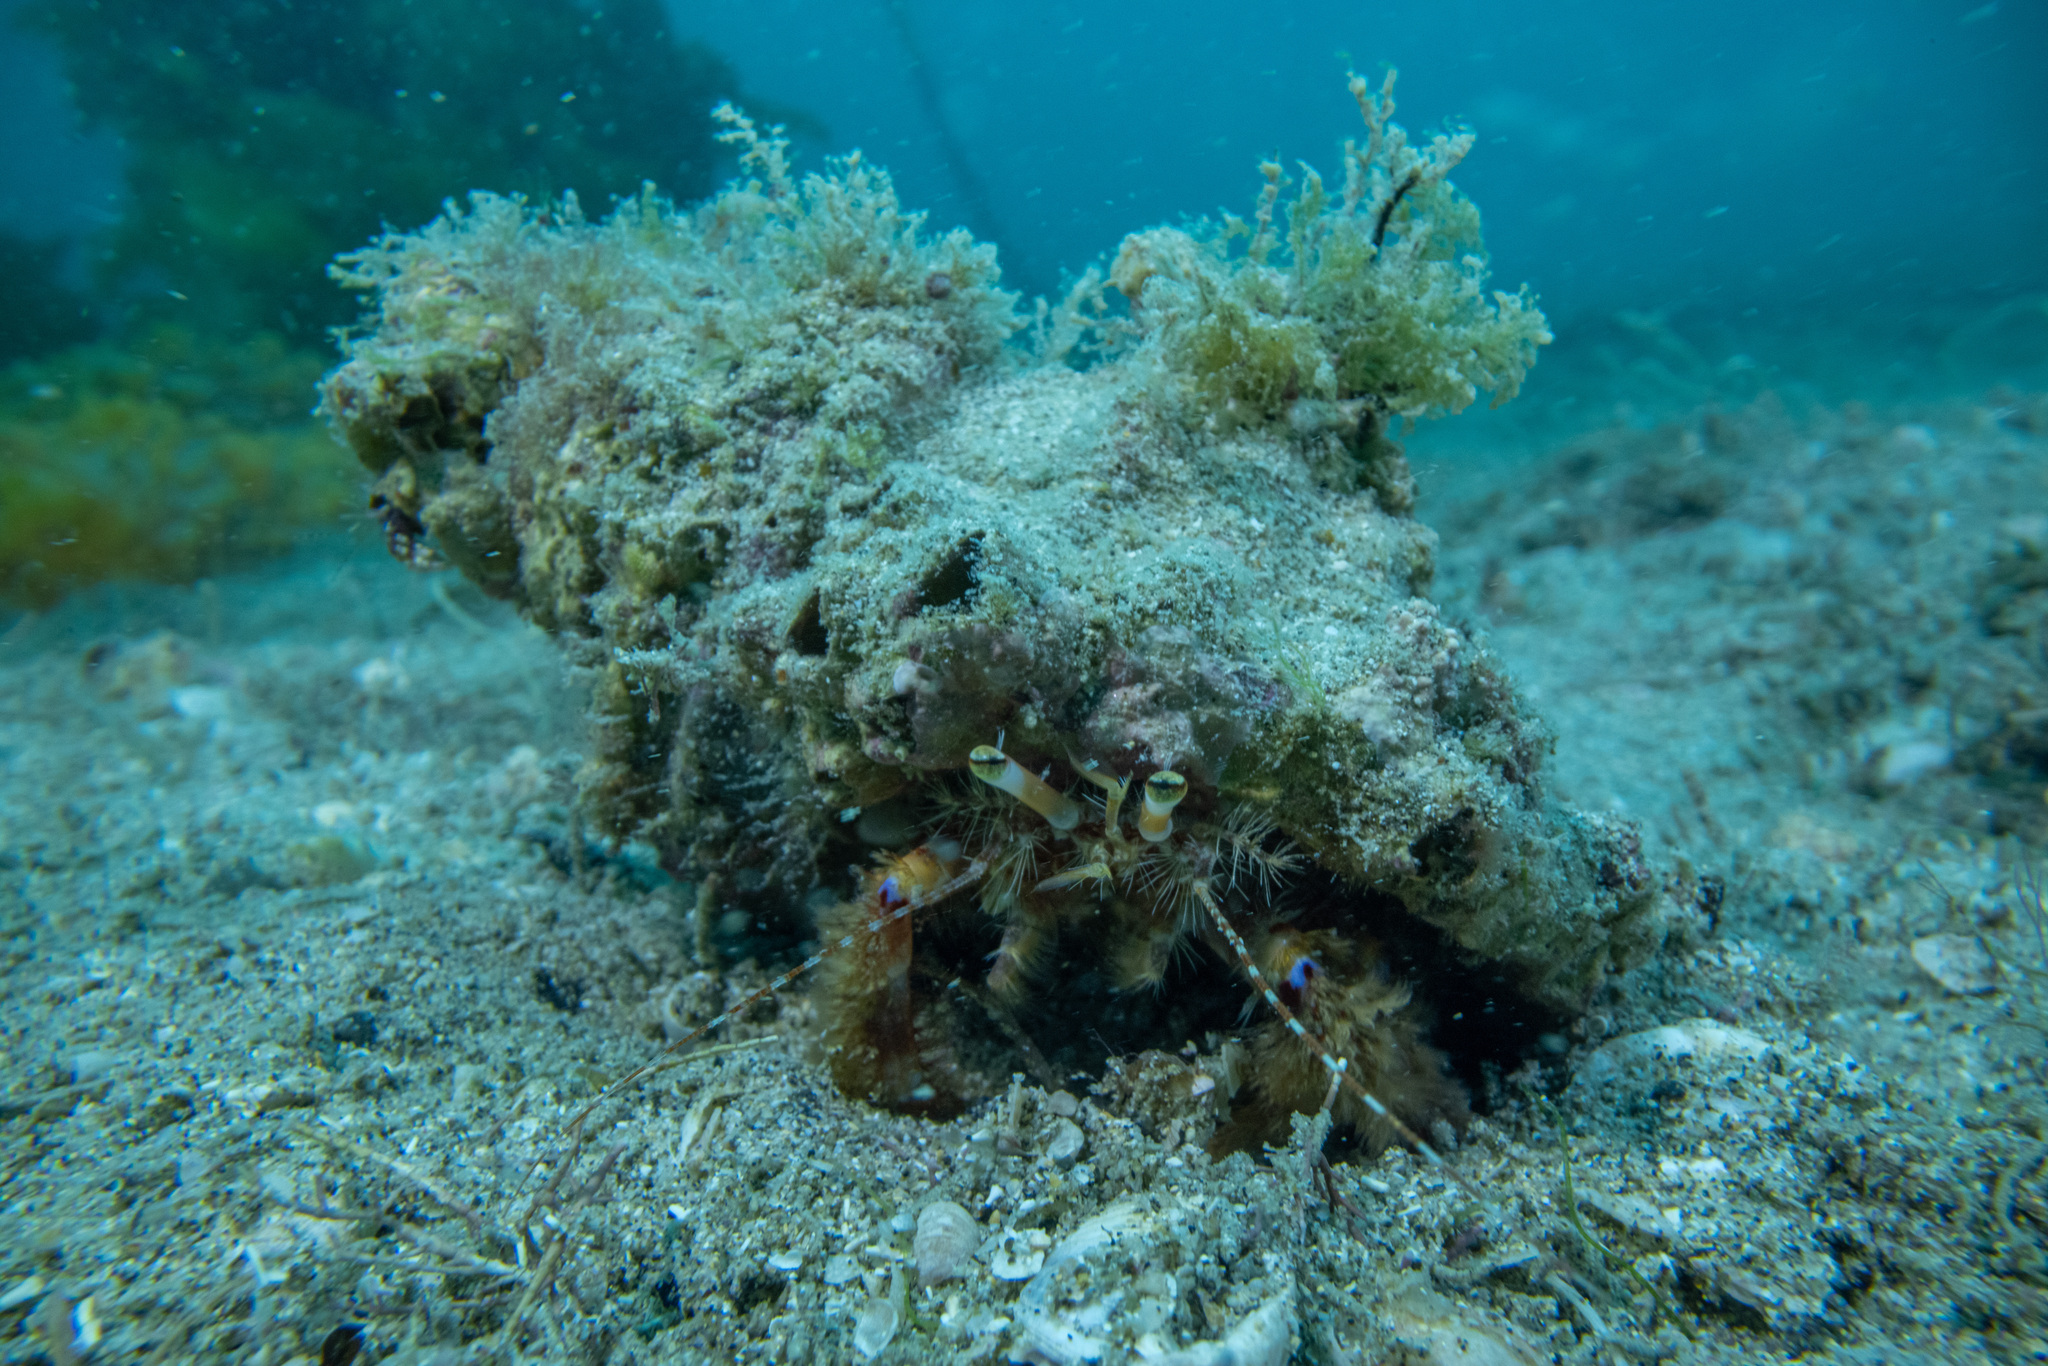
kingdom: Animalia
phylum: Arthropoda
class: Malacostraca
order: Decapoda
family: Paguridae
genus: Diacanthurus
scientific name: Diacanthurus spinulimanus
